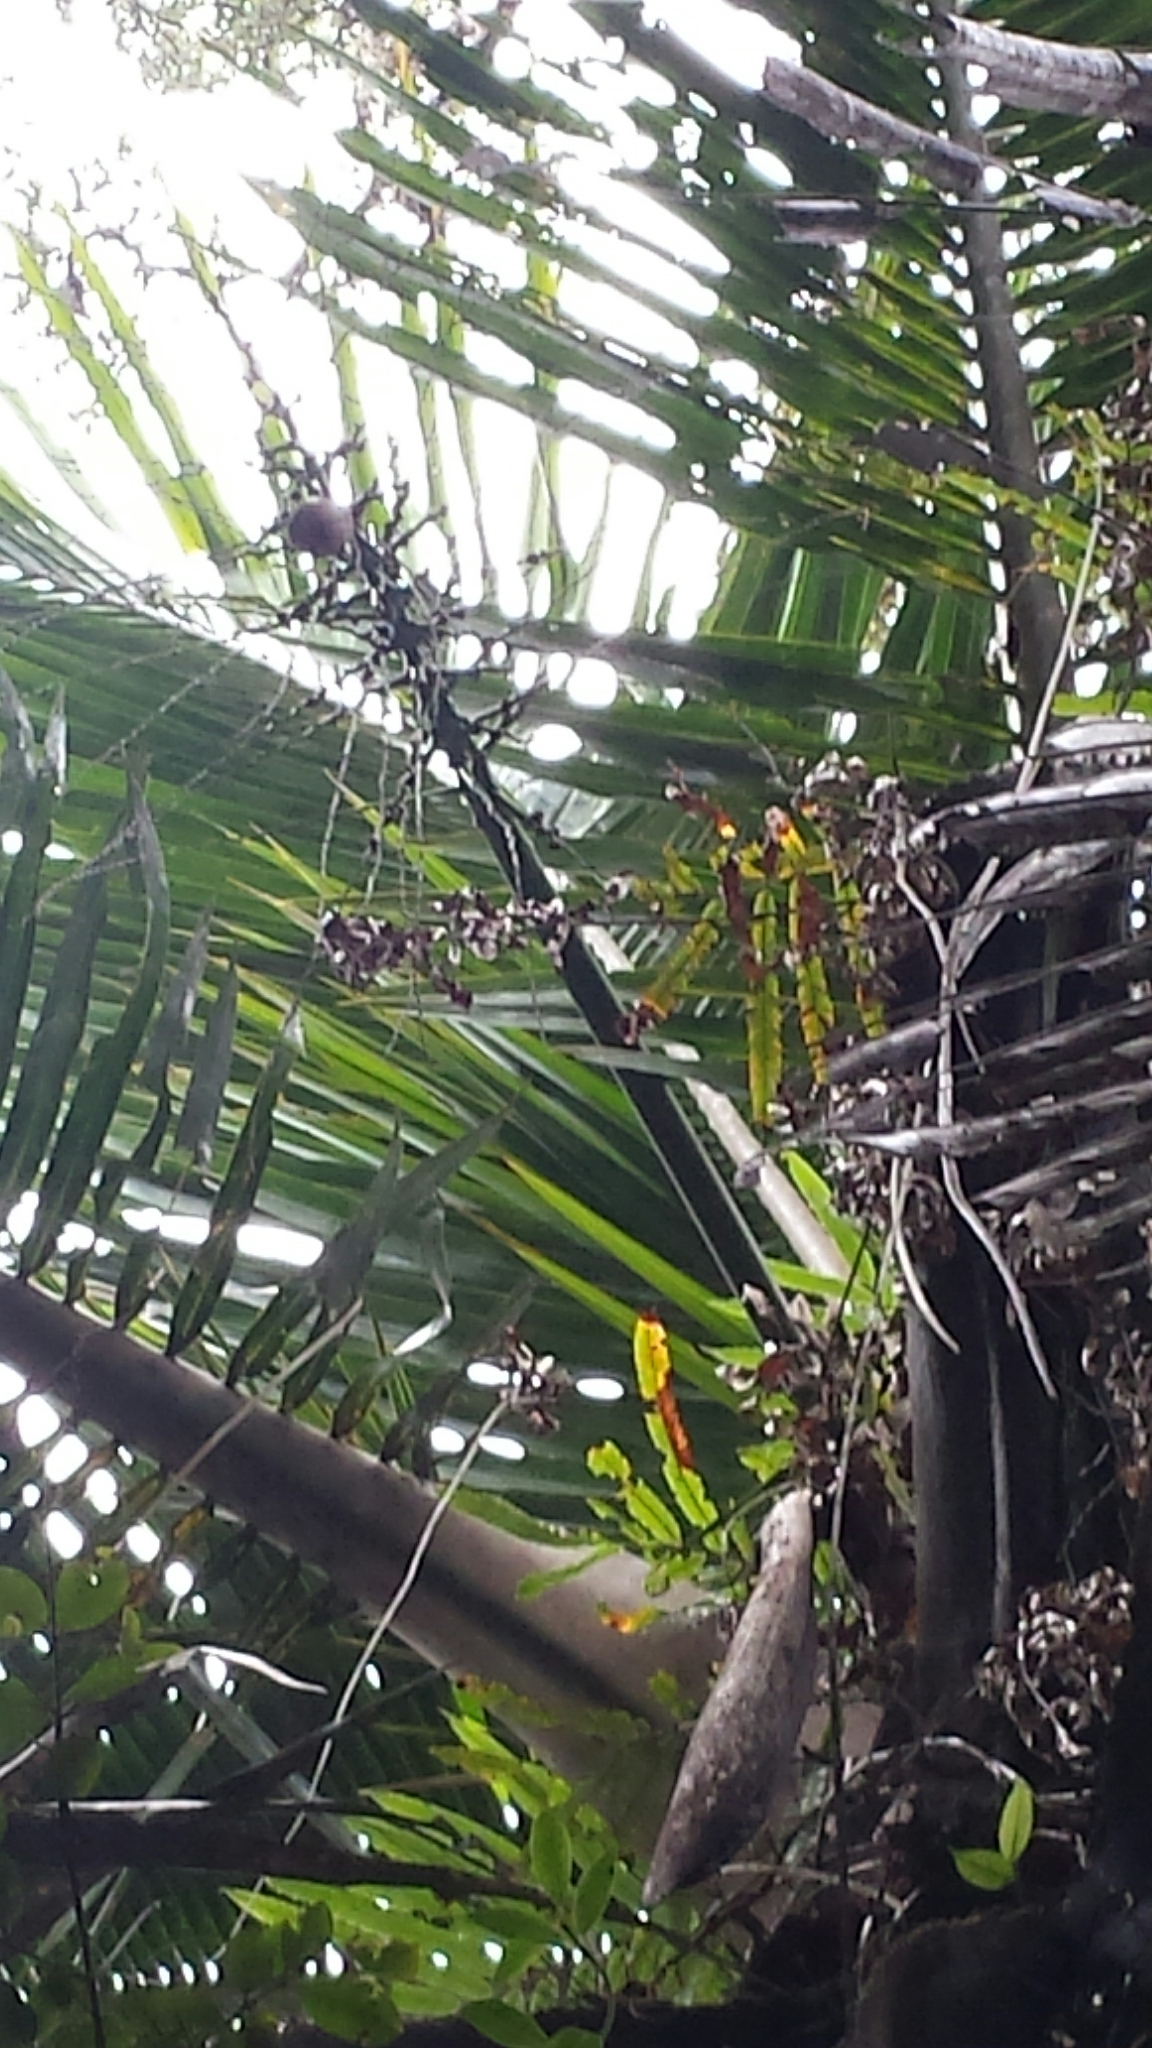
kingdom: Plantae
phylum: Tracheophyta
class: Liliopsida
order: Arecales
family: Arecaceae
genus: Voanioala
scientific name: Voanioala gerardii
